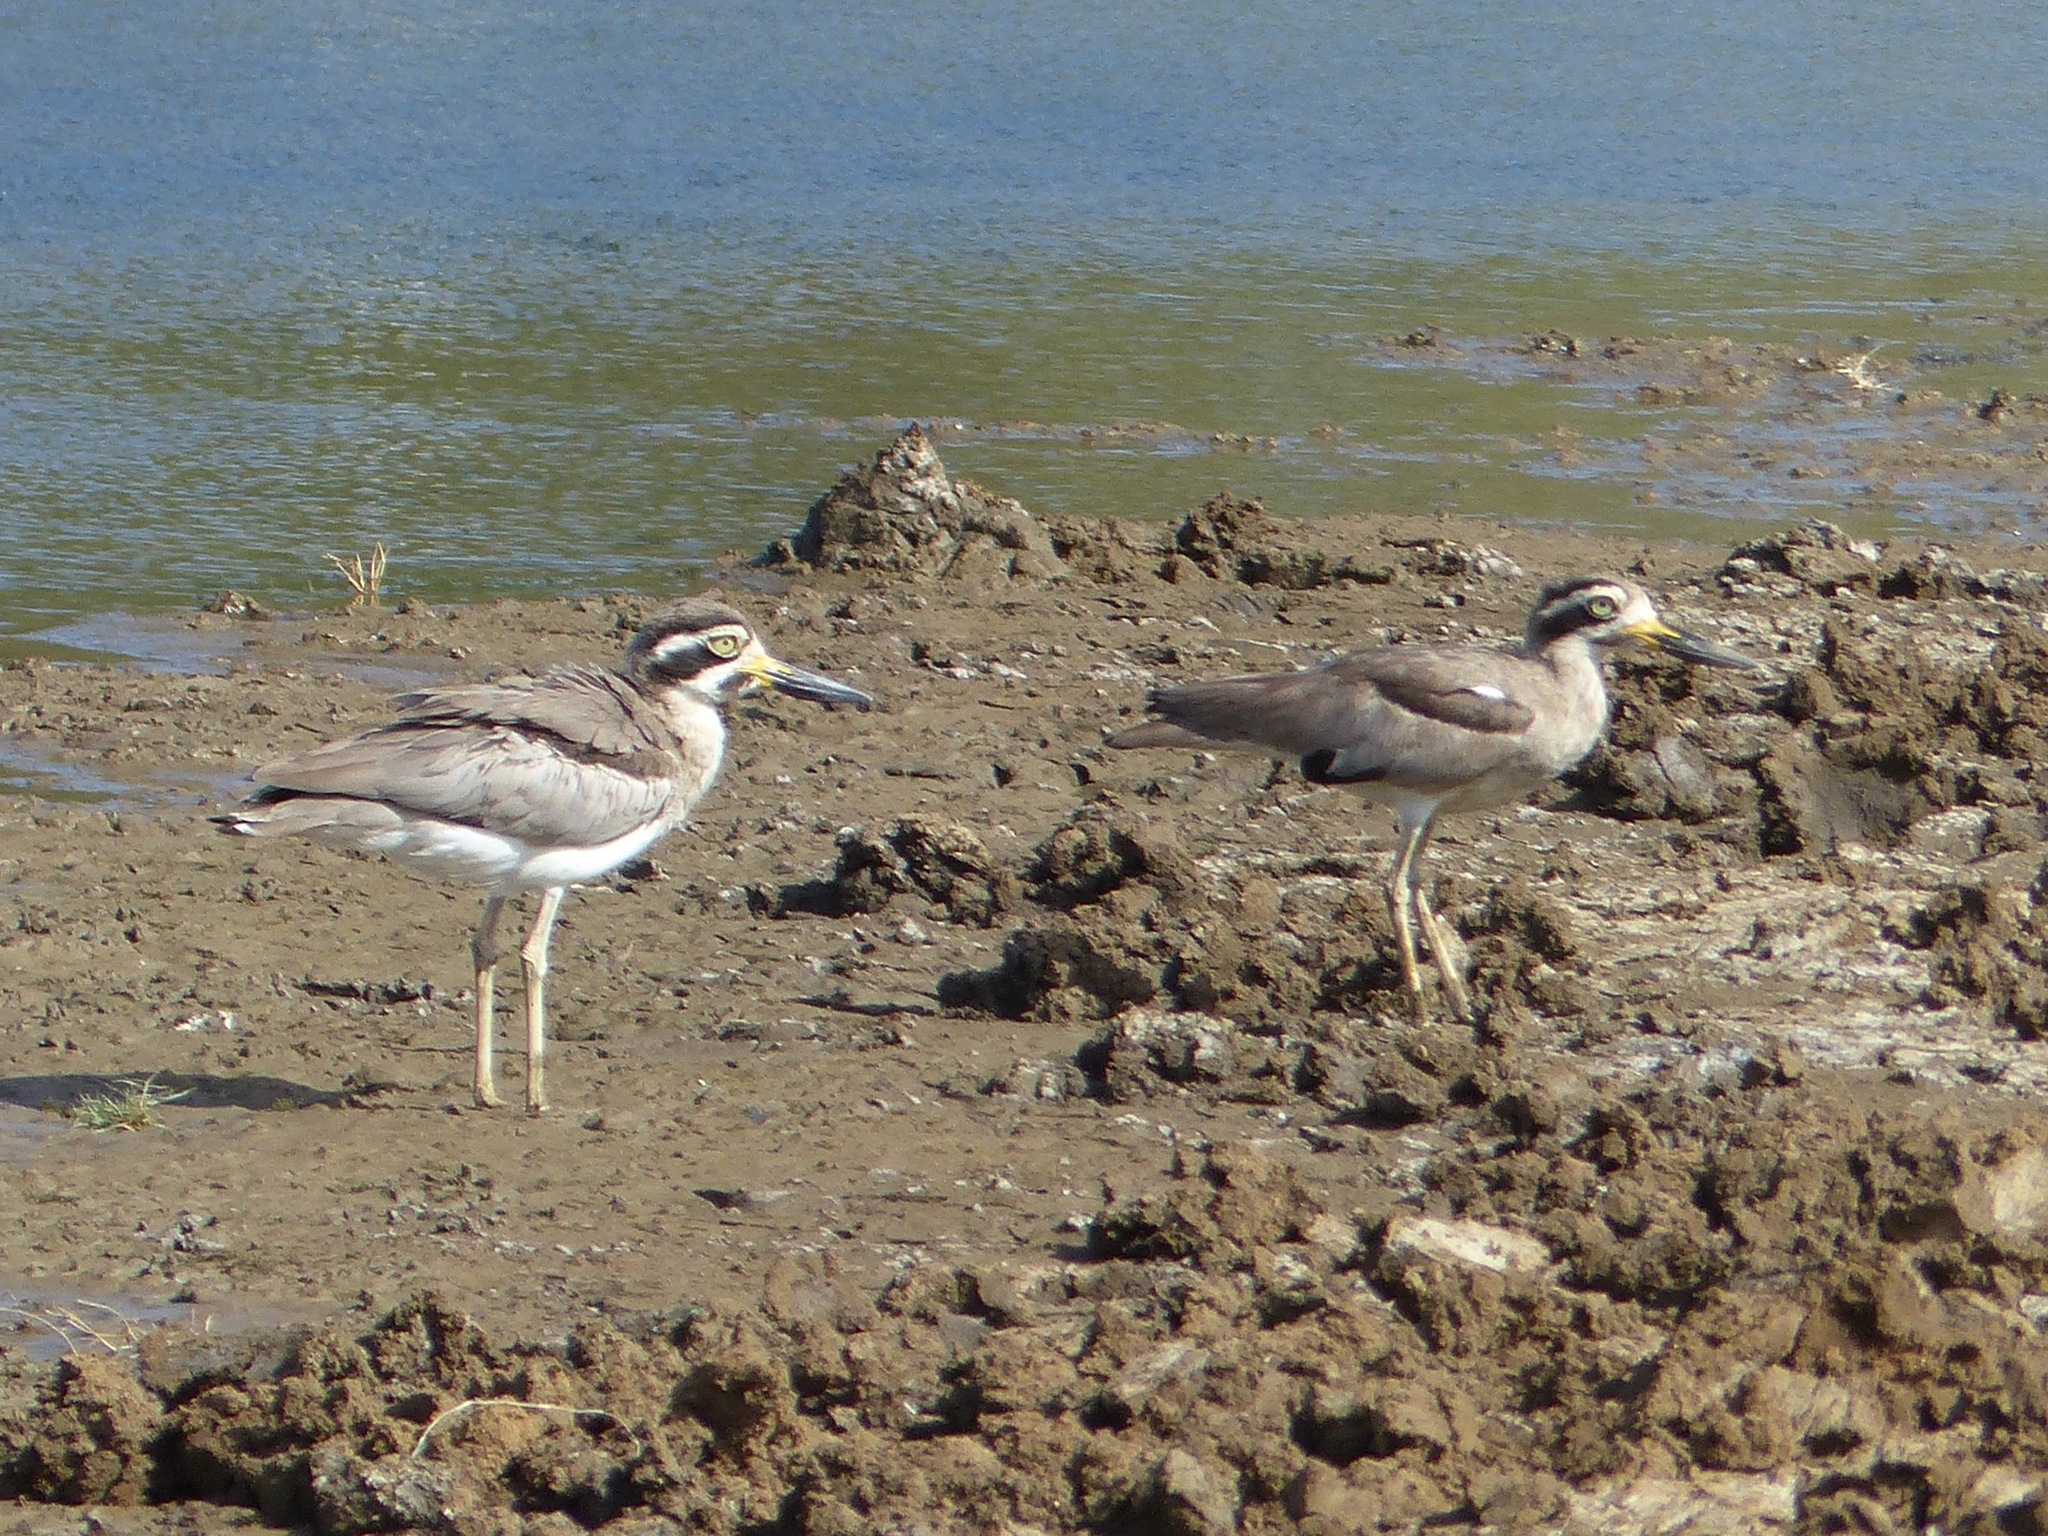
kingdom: Animalia
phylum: Chordata
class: Aves
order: Charadriiformes
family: Burhinidae
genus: Esacus
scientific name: Esacus recurvirostris
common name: Great stone-curlew
